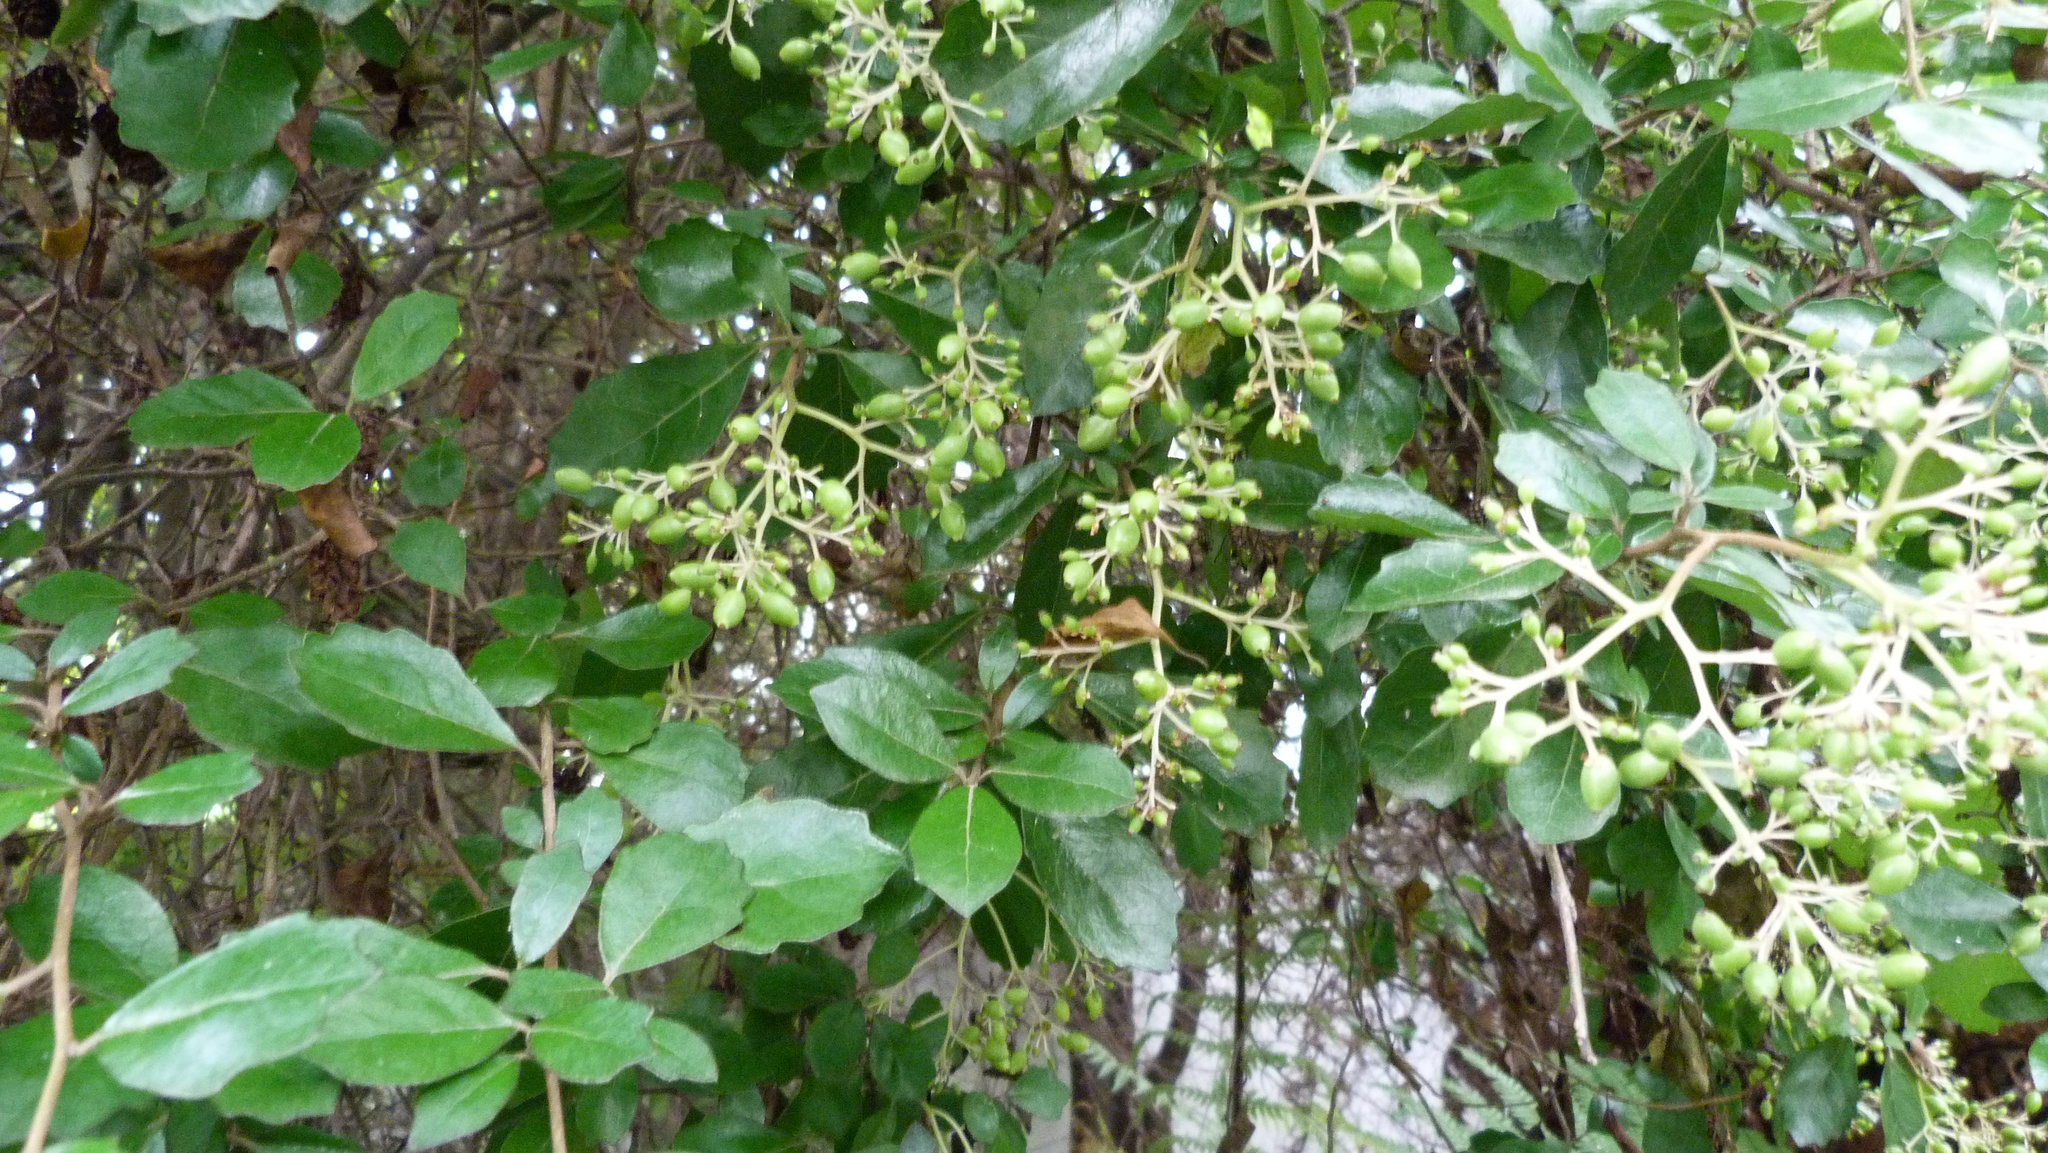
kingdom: Plantae
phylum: Tracheophyta
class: Magnoliopsida
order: Apiales
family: Pennantiaceae
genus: Pennantia
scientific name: Pennantia corymbosa
